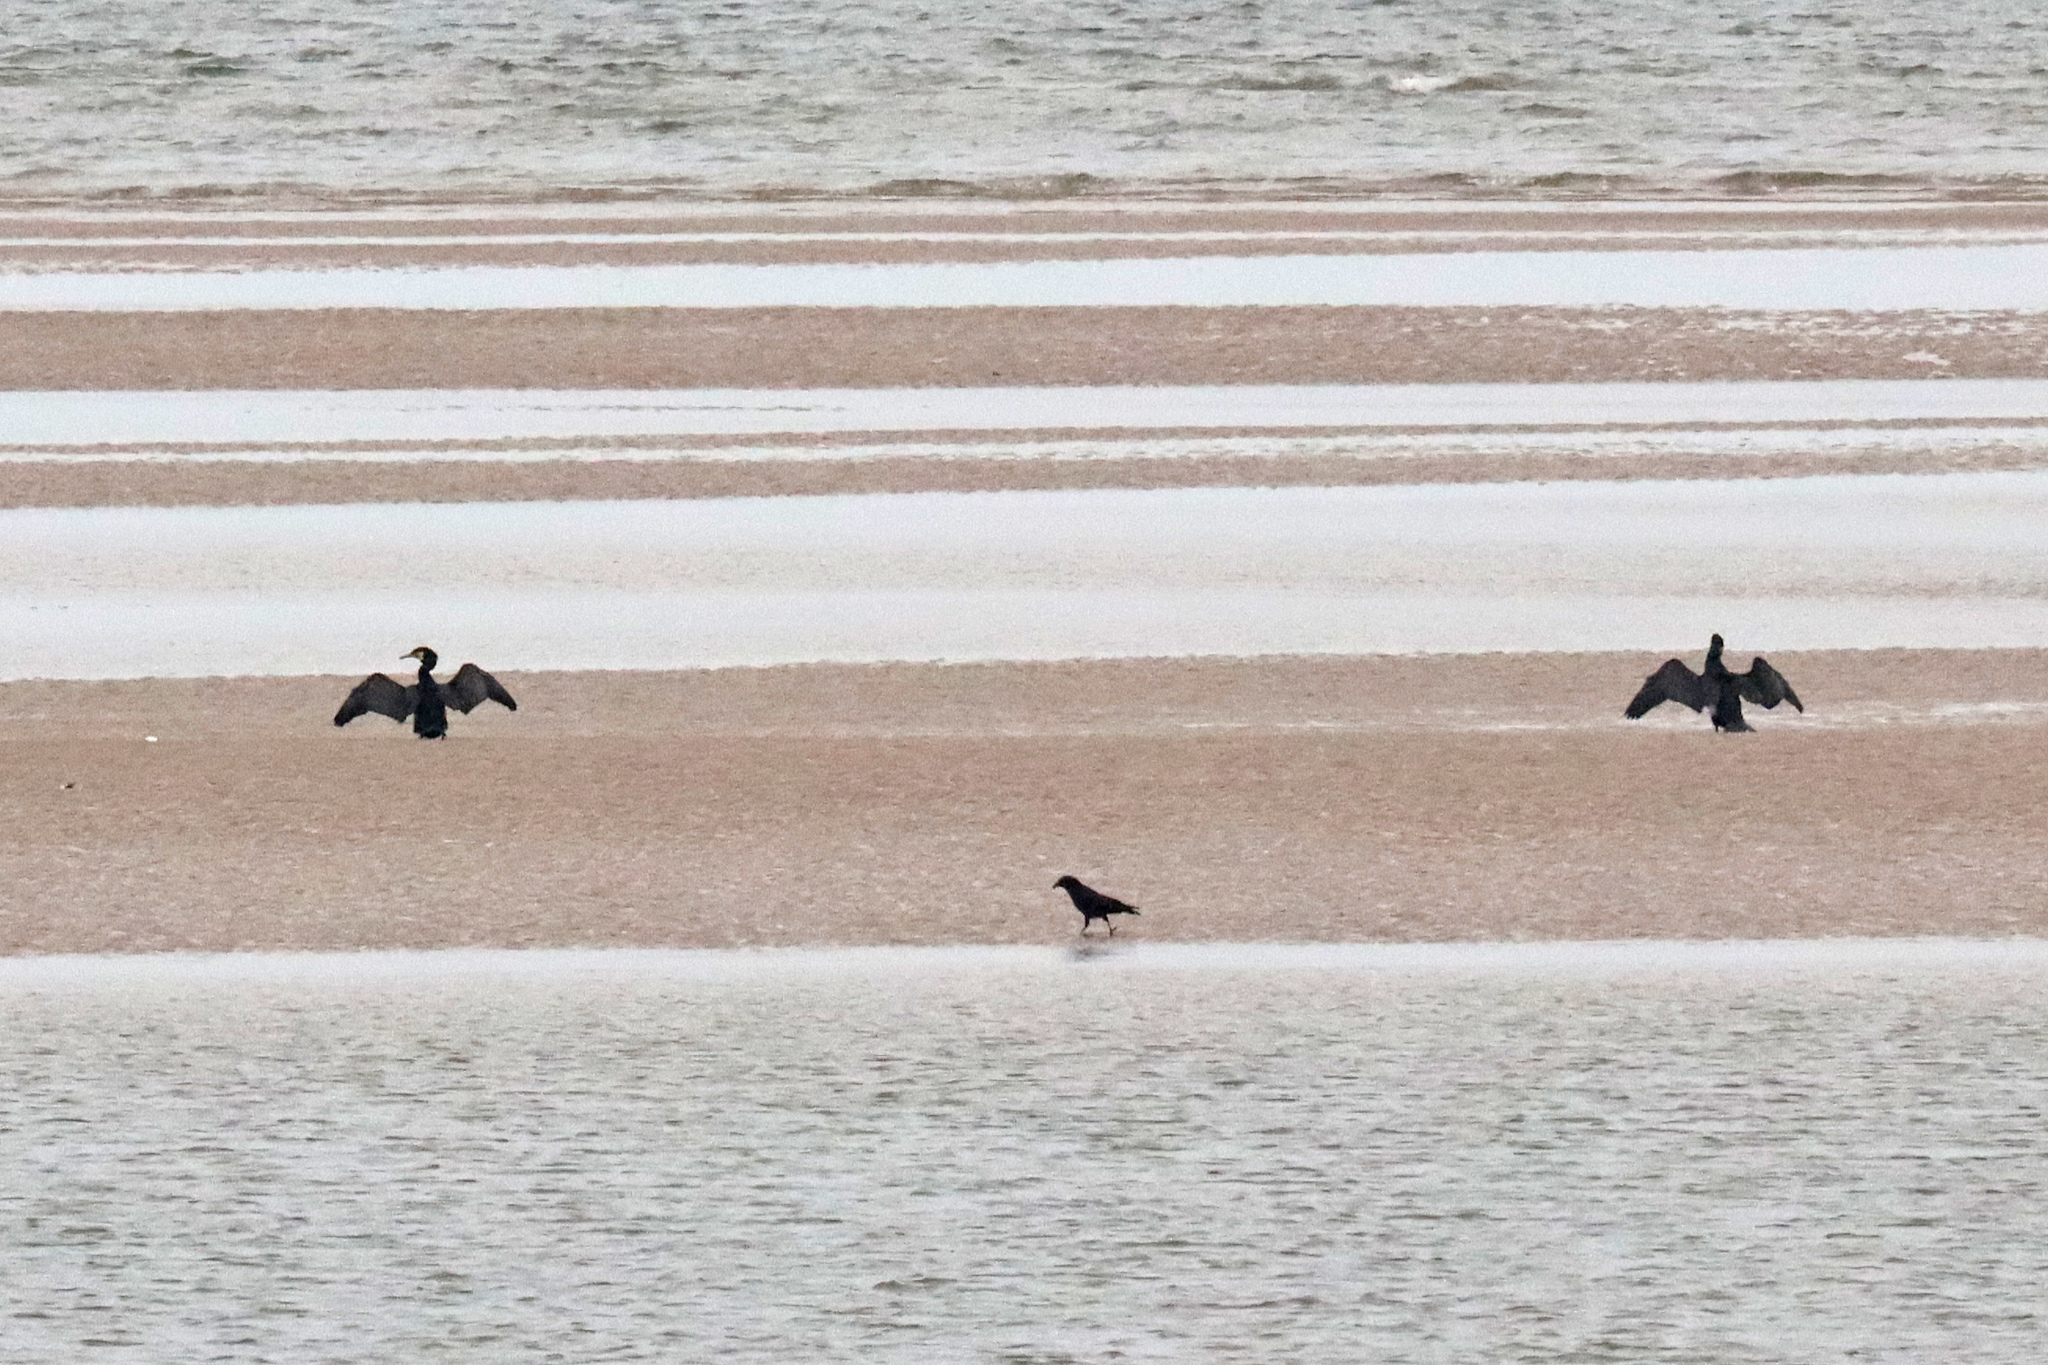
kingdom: Animalia
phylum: Chordata
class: Aves
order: Suliformes
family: Phalacrocoracidae
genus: Phalacrocorax
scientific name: Phalacrocorax carbo
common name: Great cormorant
